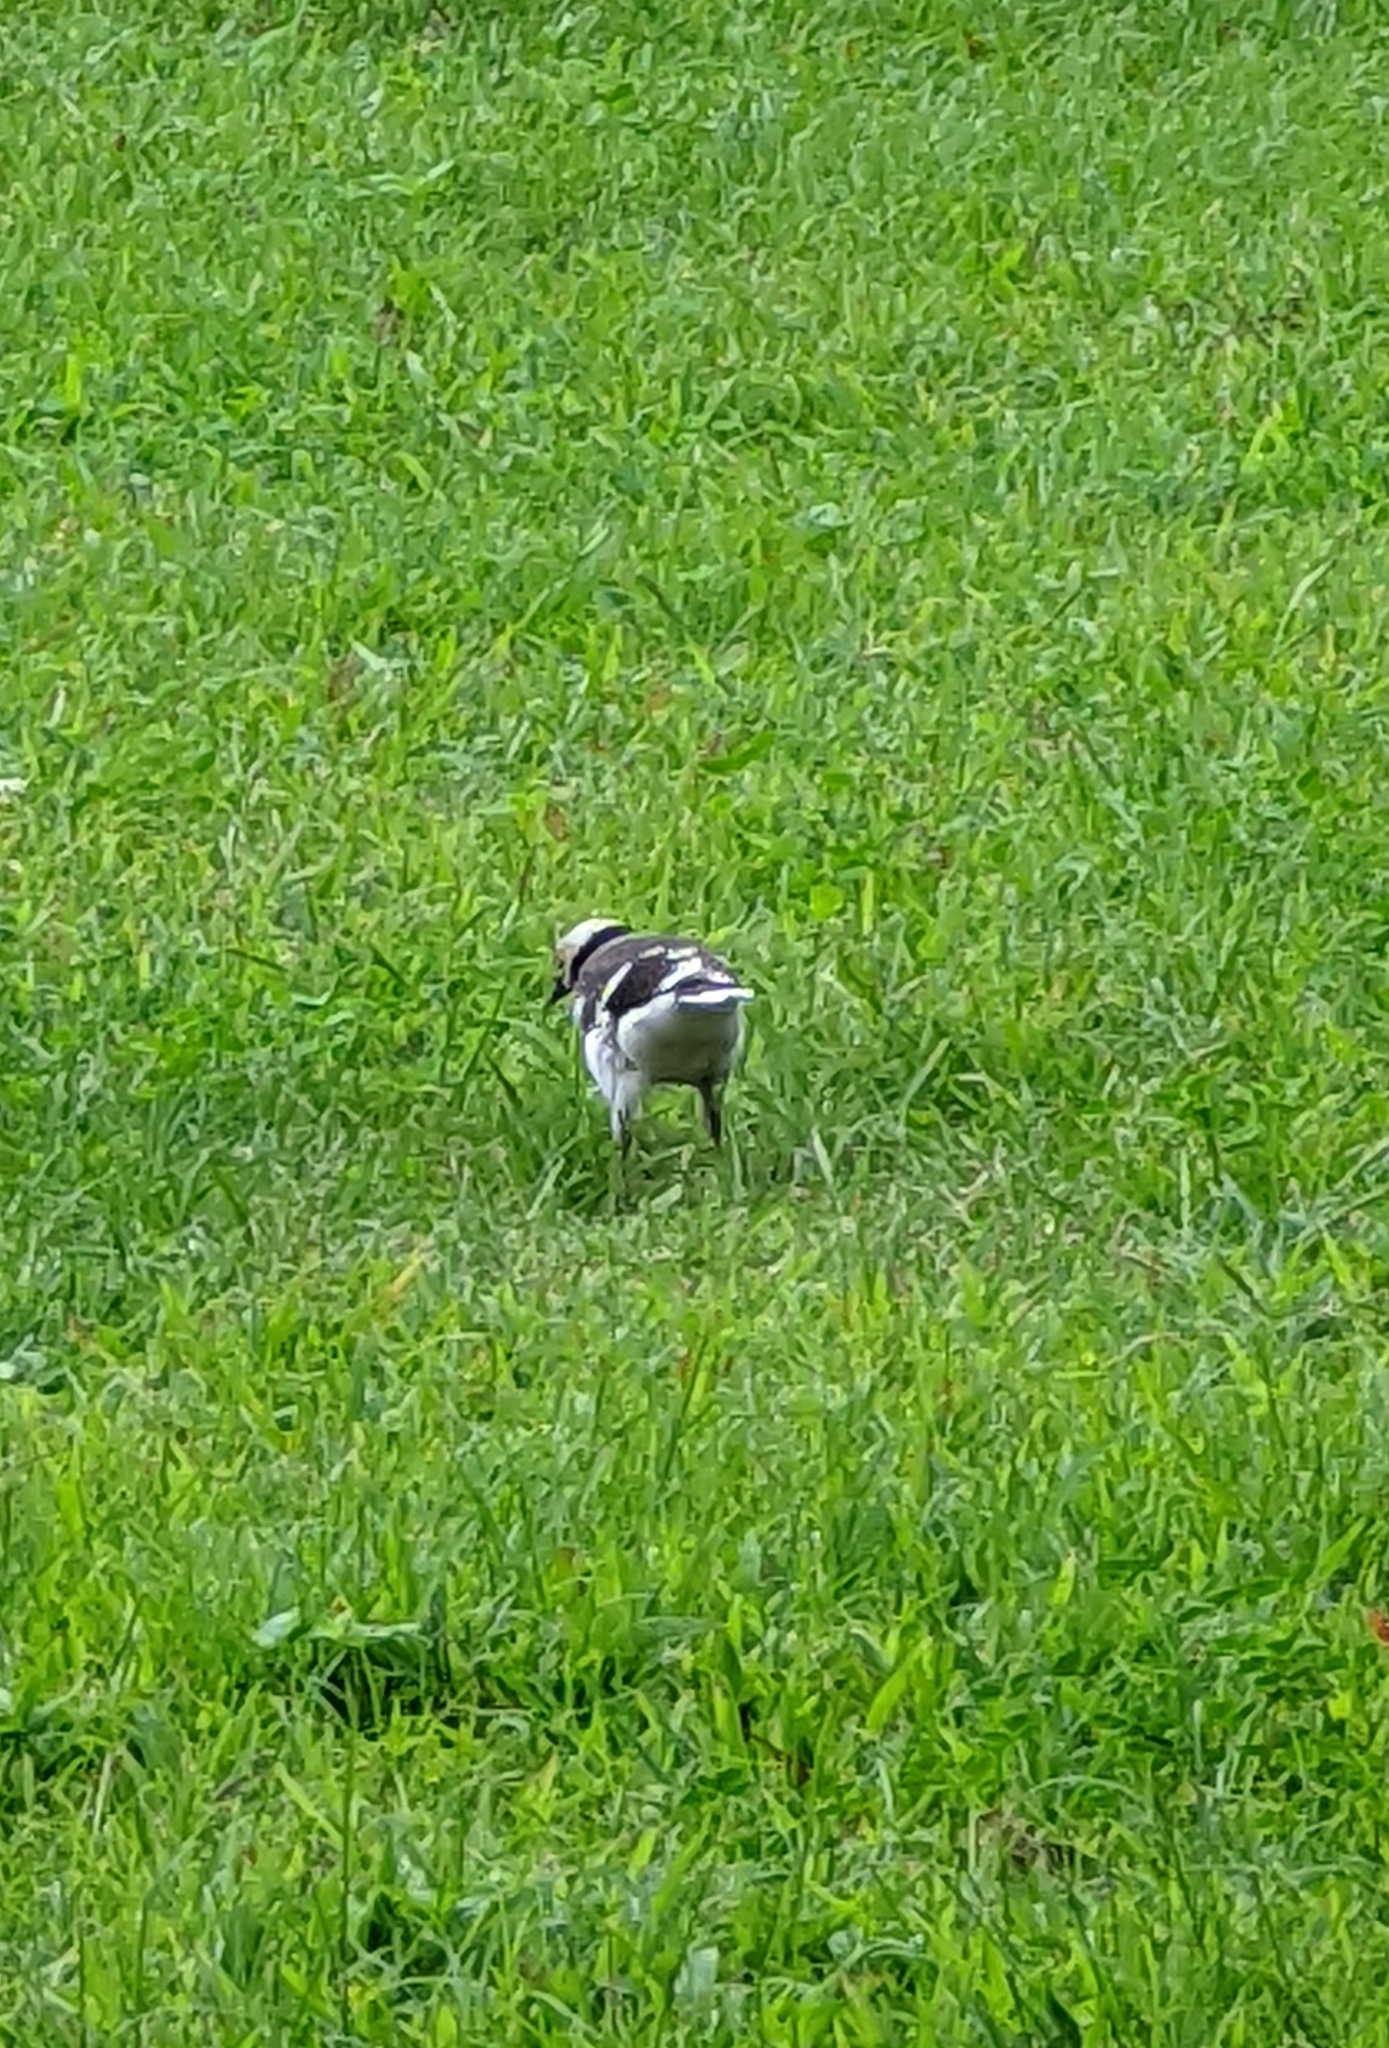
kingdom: Animalia
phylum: Chordata
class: Aves
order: Passeriformes
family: Sturnidae
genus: Gracupica
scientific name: Gracupica nigricollis
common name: Black-collared starling
